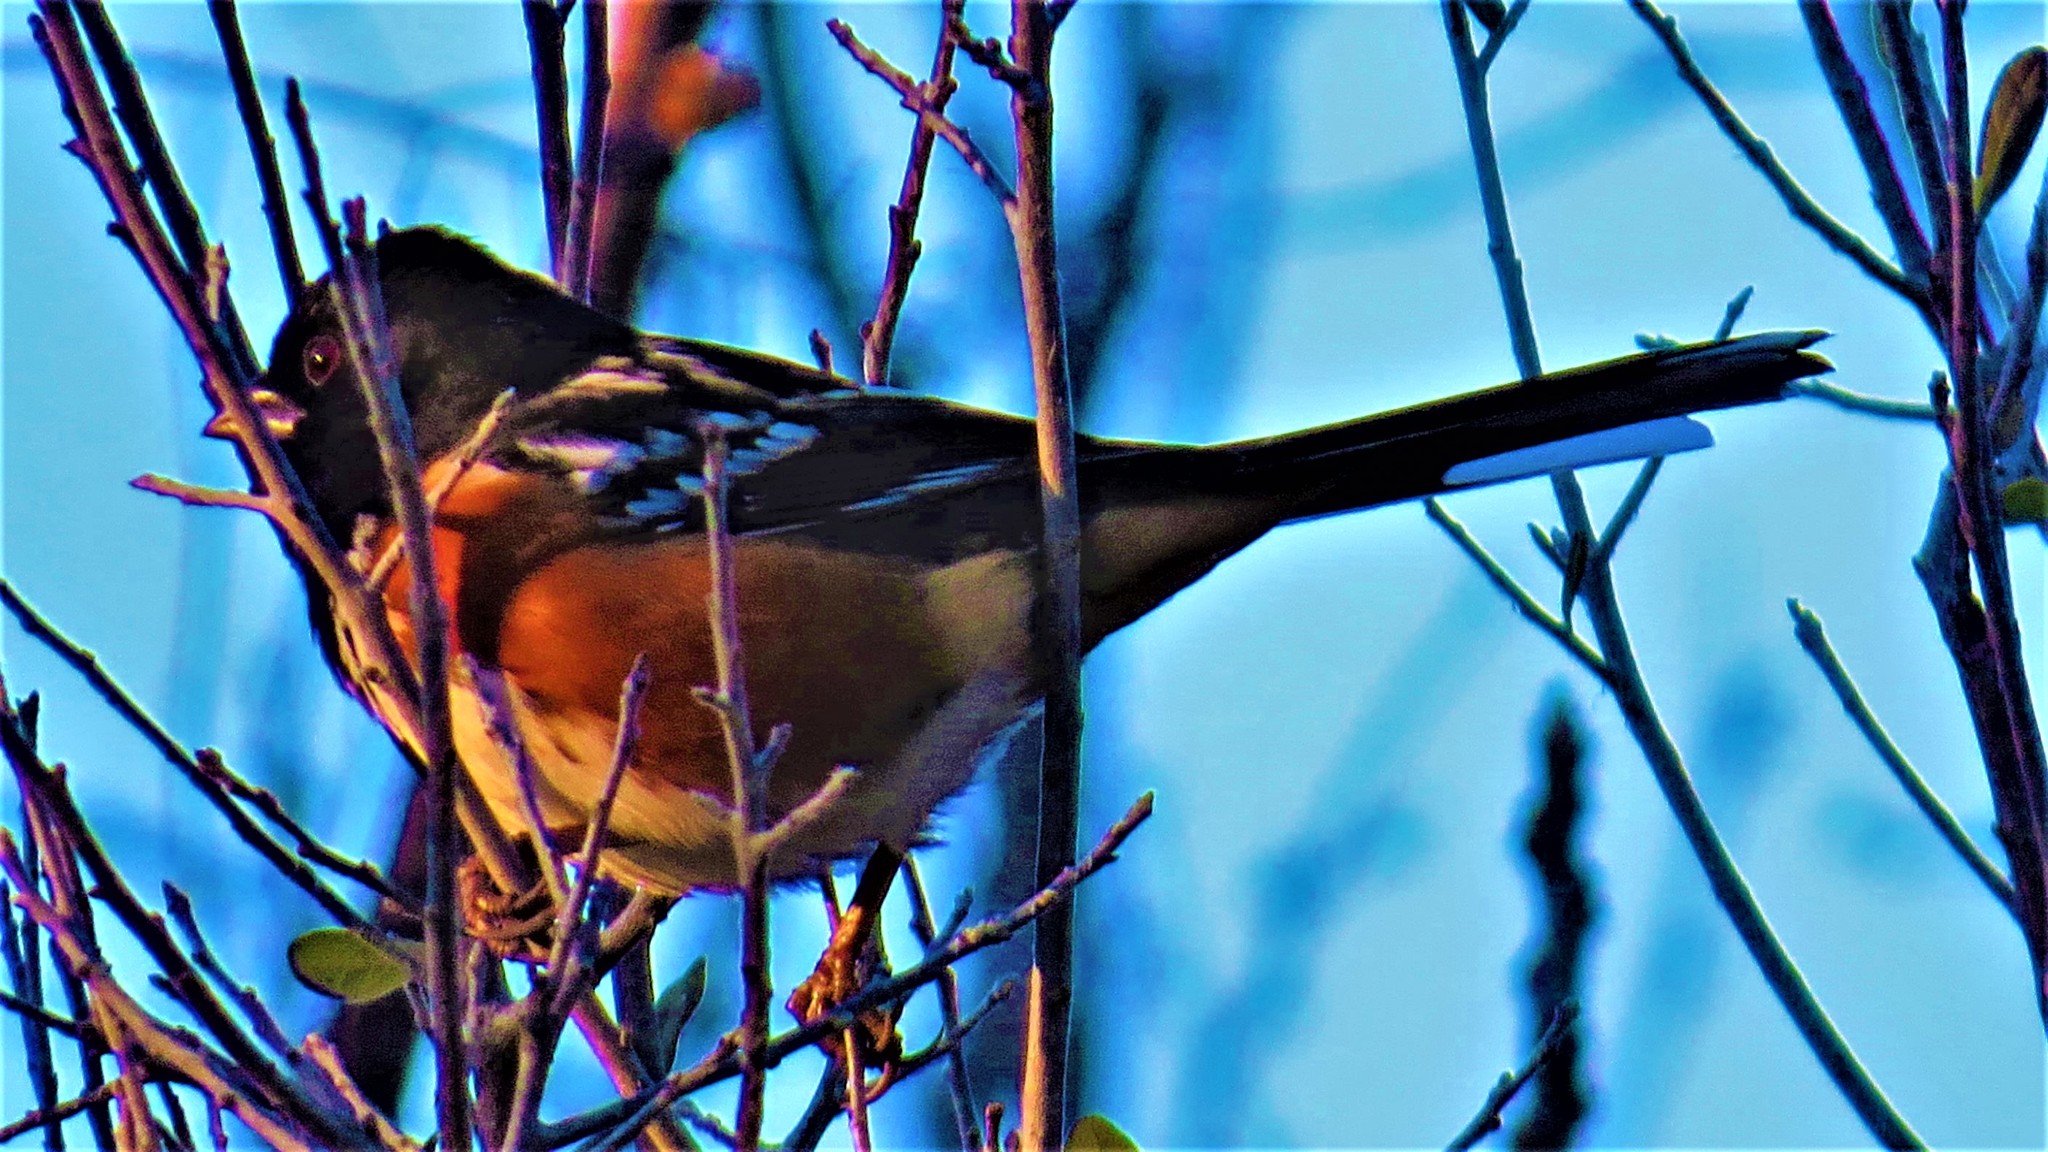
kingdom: Animalia
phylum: Chordata
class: Aves
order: Passeriformes
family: Passerellidae
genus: Pipilo
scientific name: Pipilo maculatus
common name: Spotted towhee
